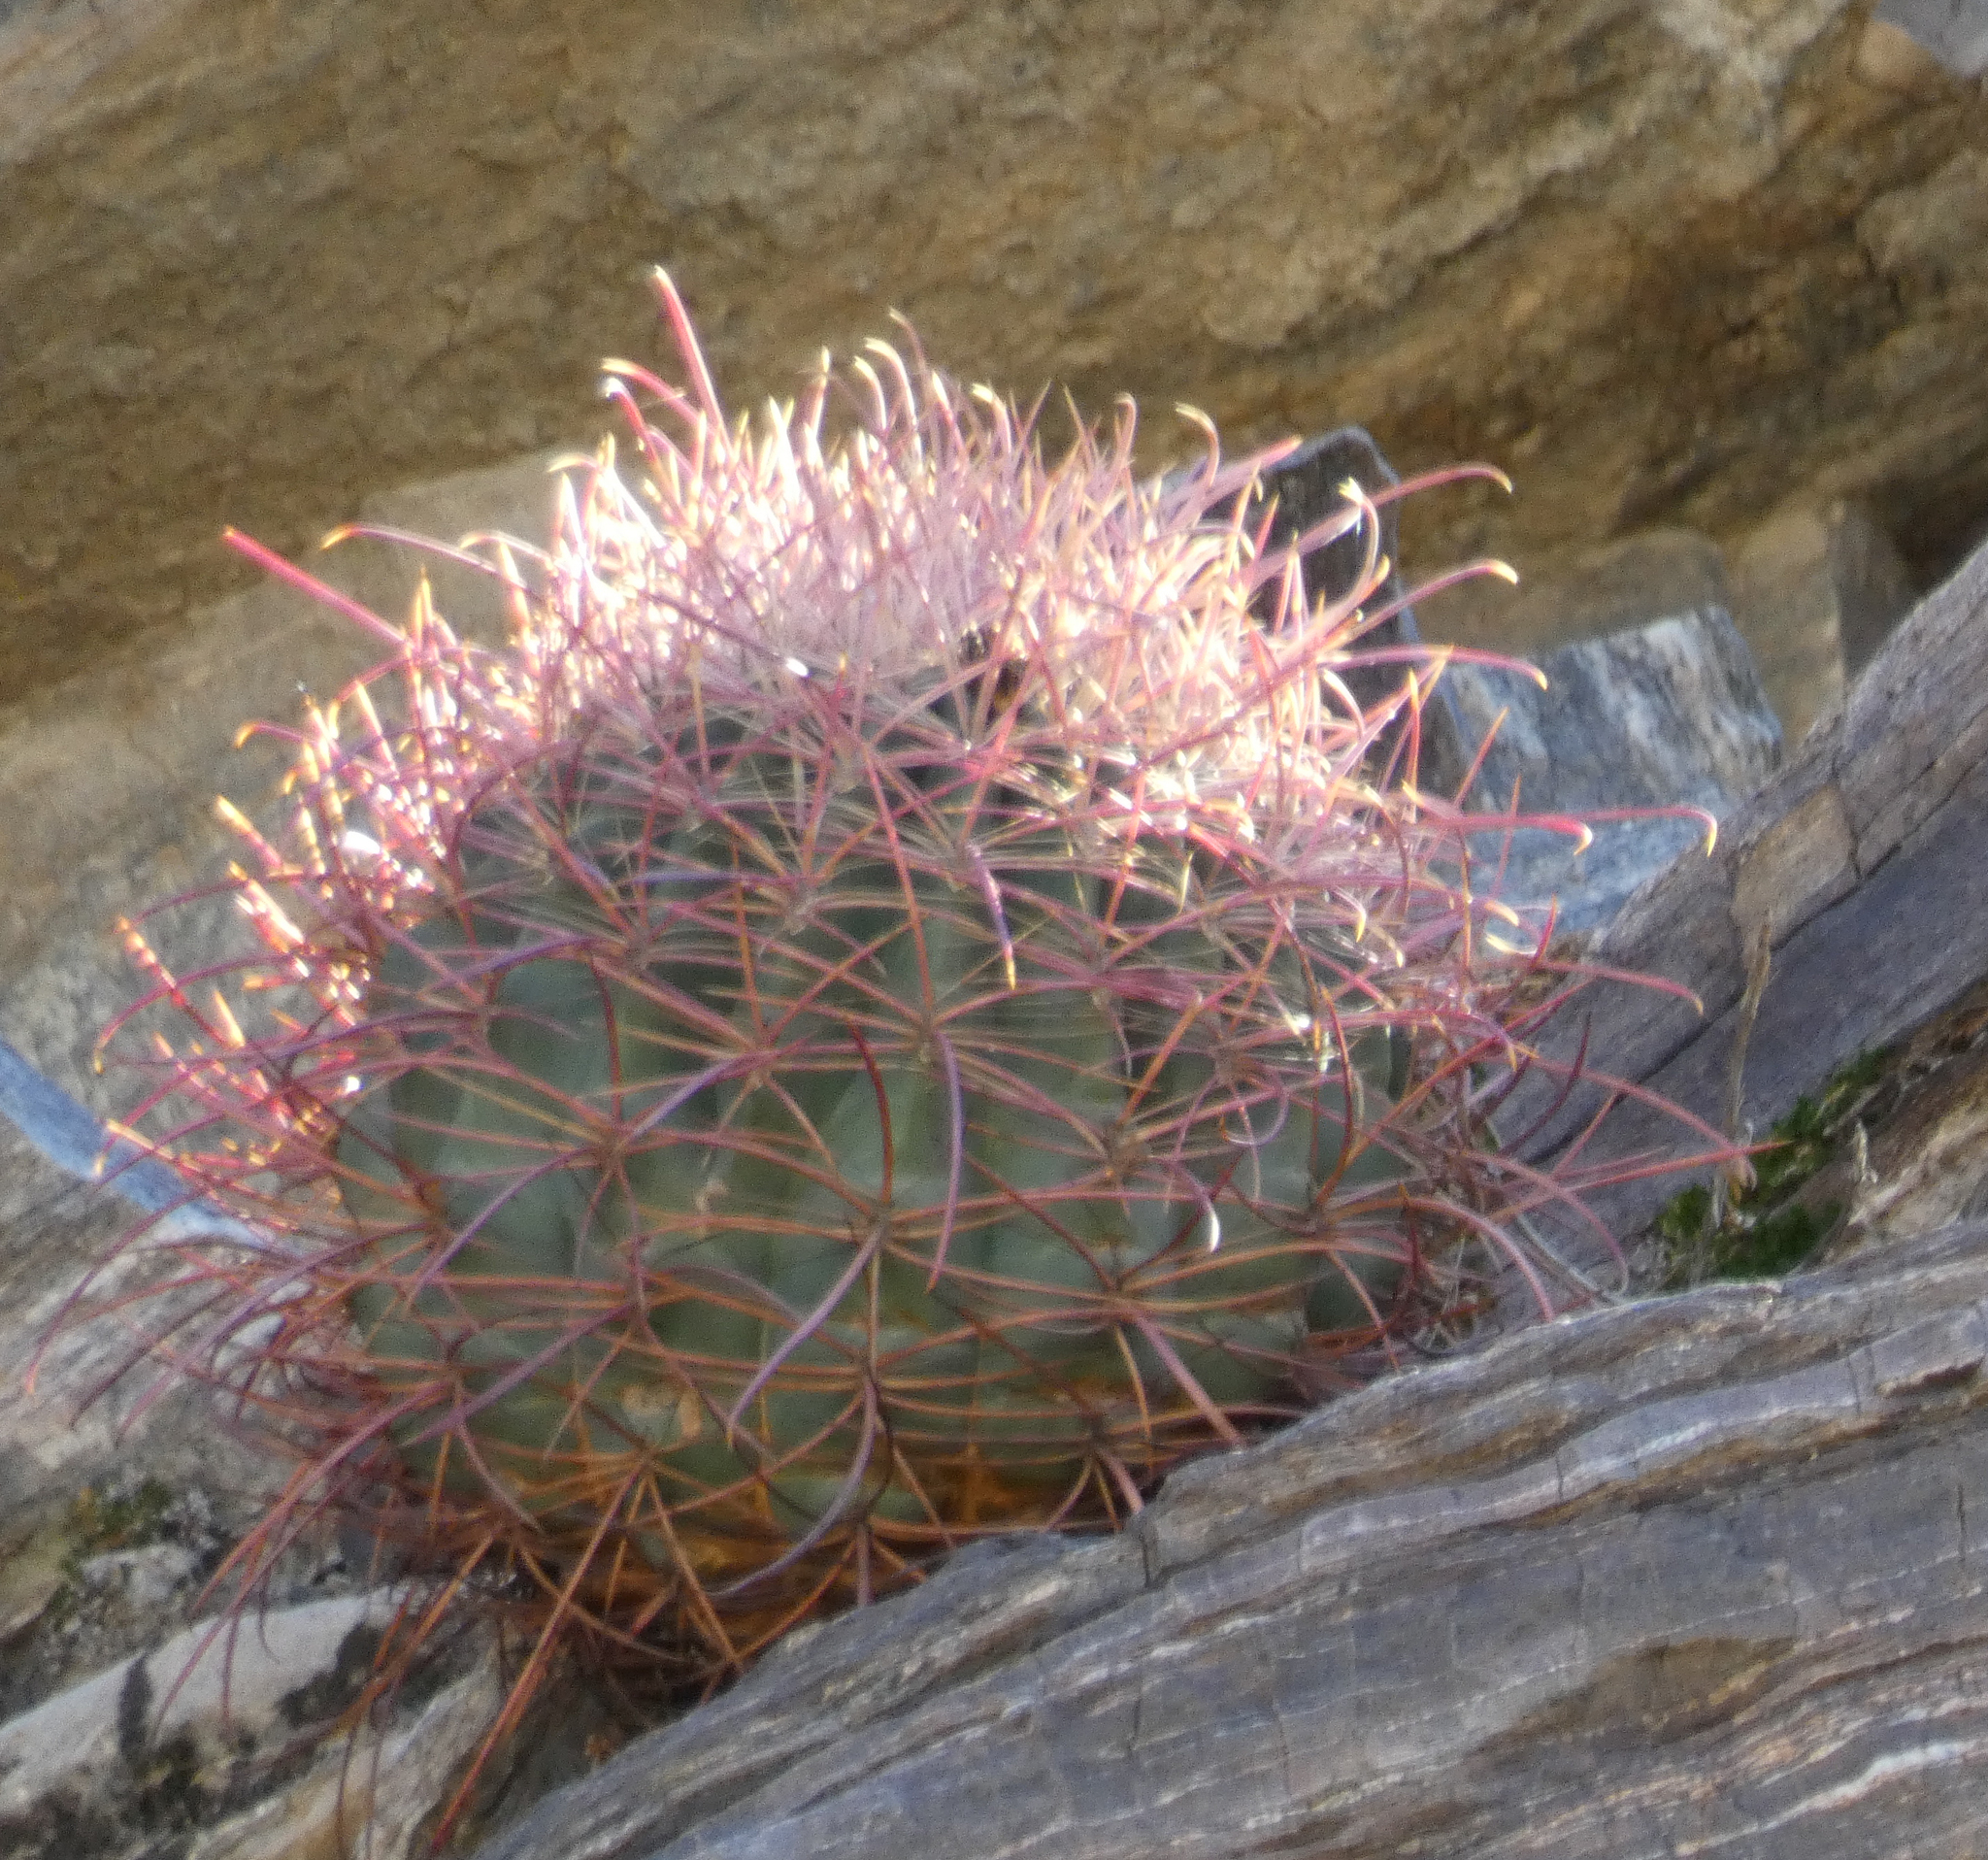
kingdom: Plantae
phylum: Tracheophyta
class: Magnoliopsida
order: Caryophyllales
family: Cactaceae
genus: Ferocactus
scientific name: Ferocactus cylindraceus
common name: California barrel cactus
